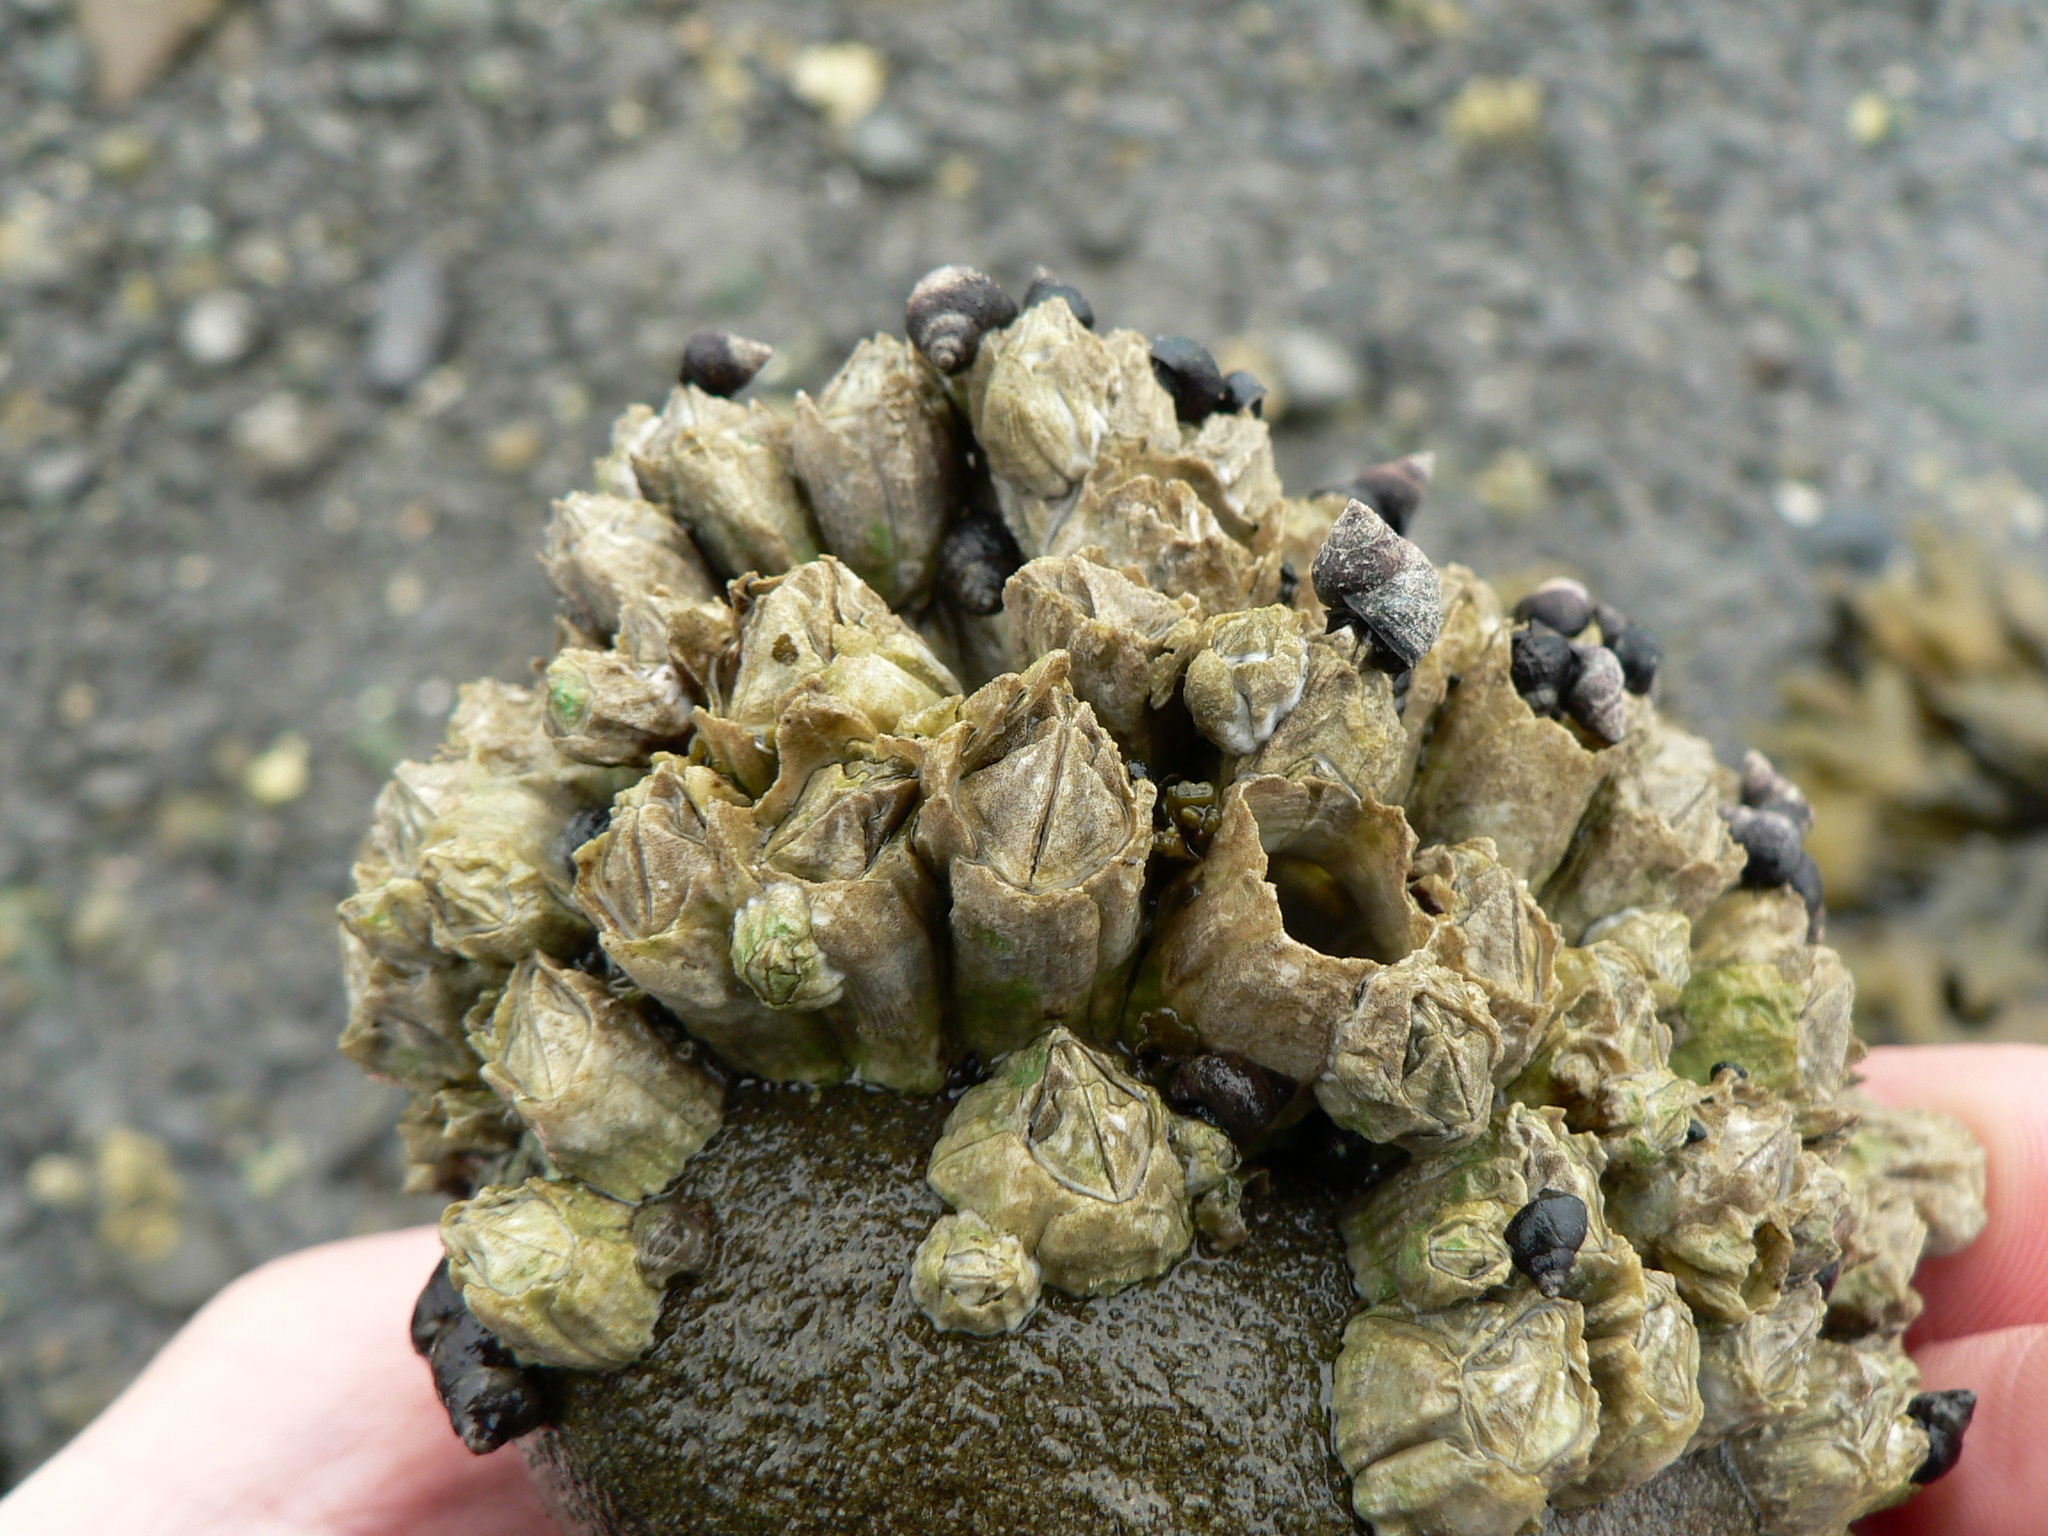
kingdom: Animalia
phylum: Arthropoda
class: Maxillopoda
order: Sessilia
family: Balanidae
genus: Balanus
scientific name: Balanus glandula
